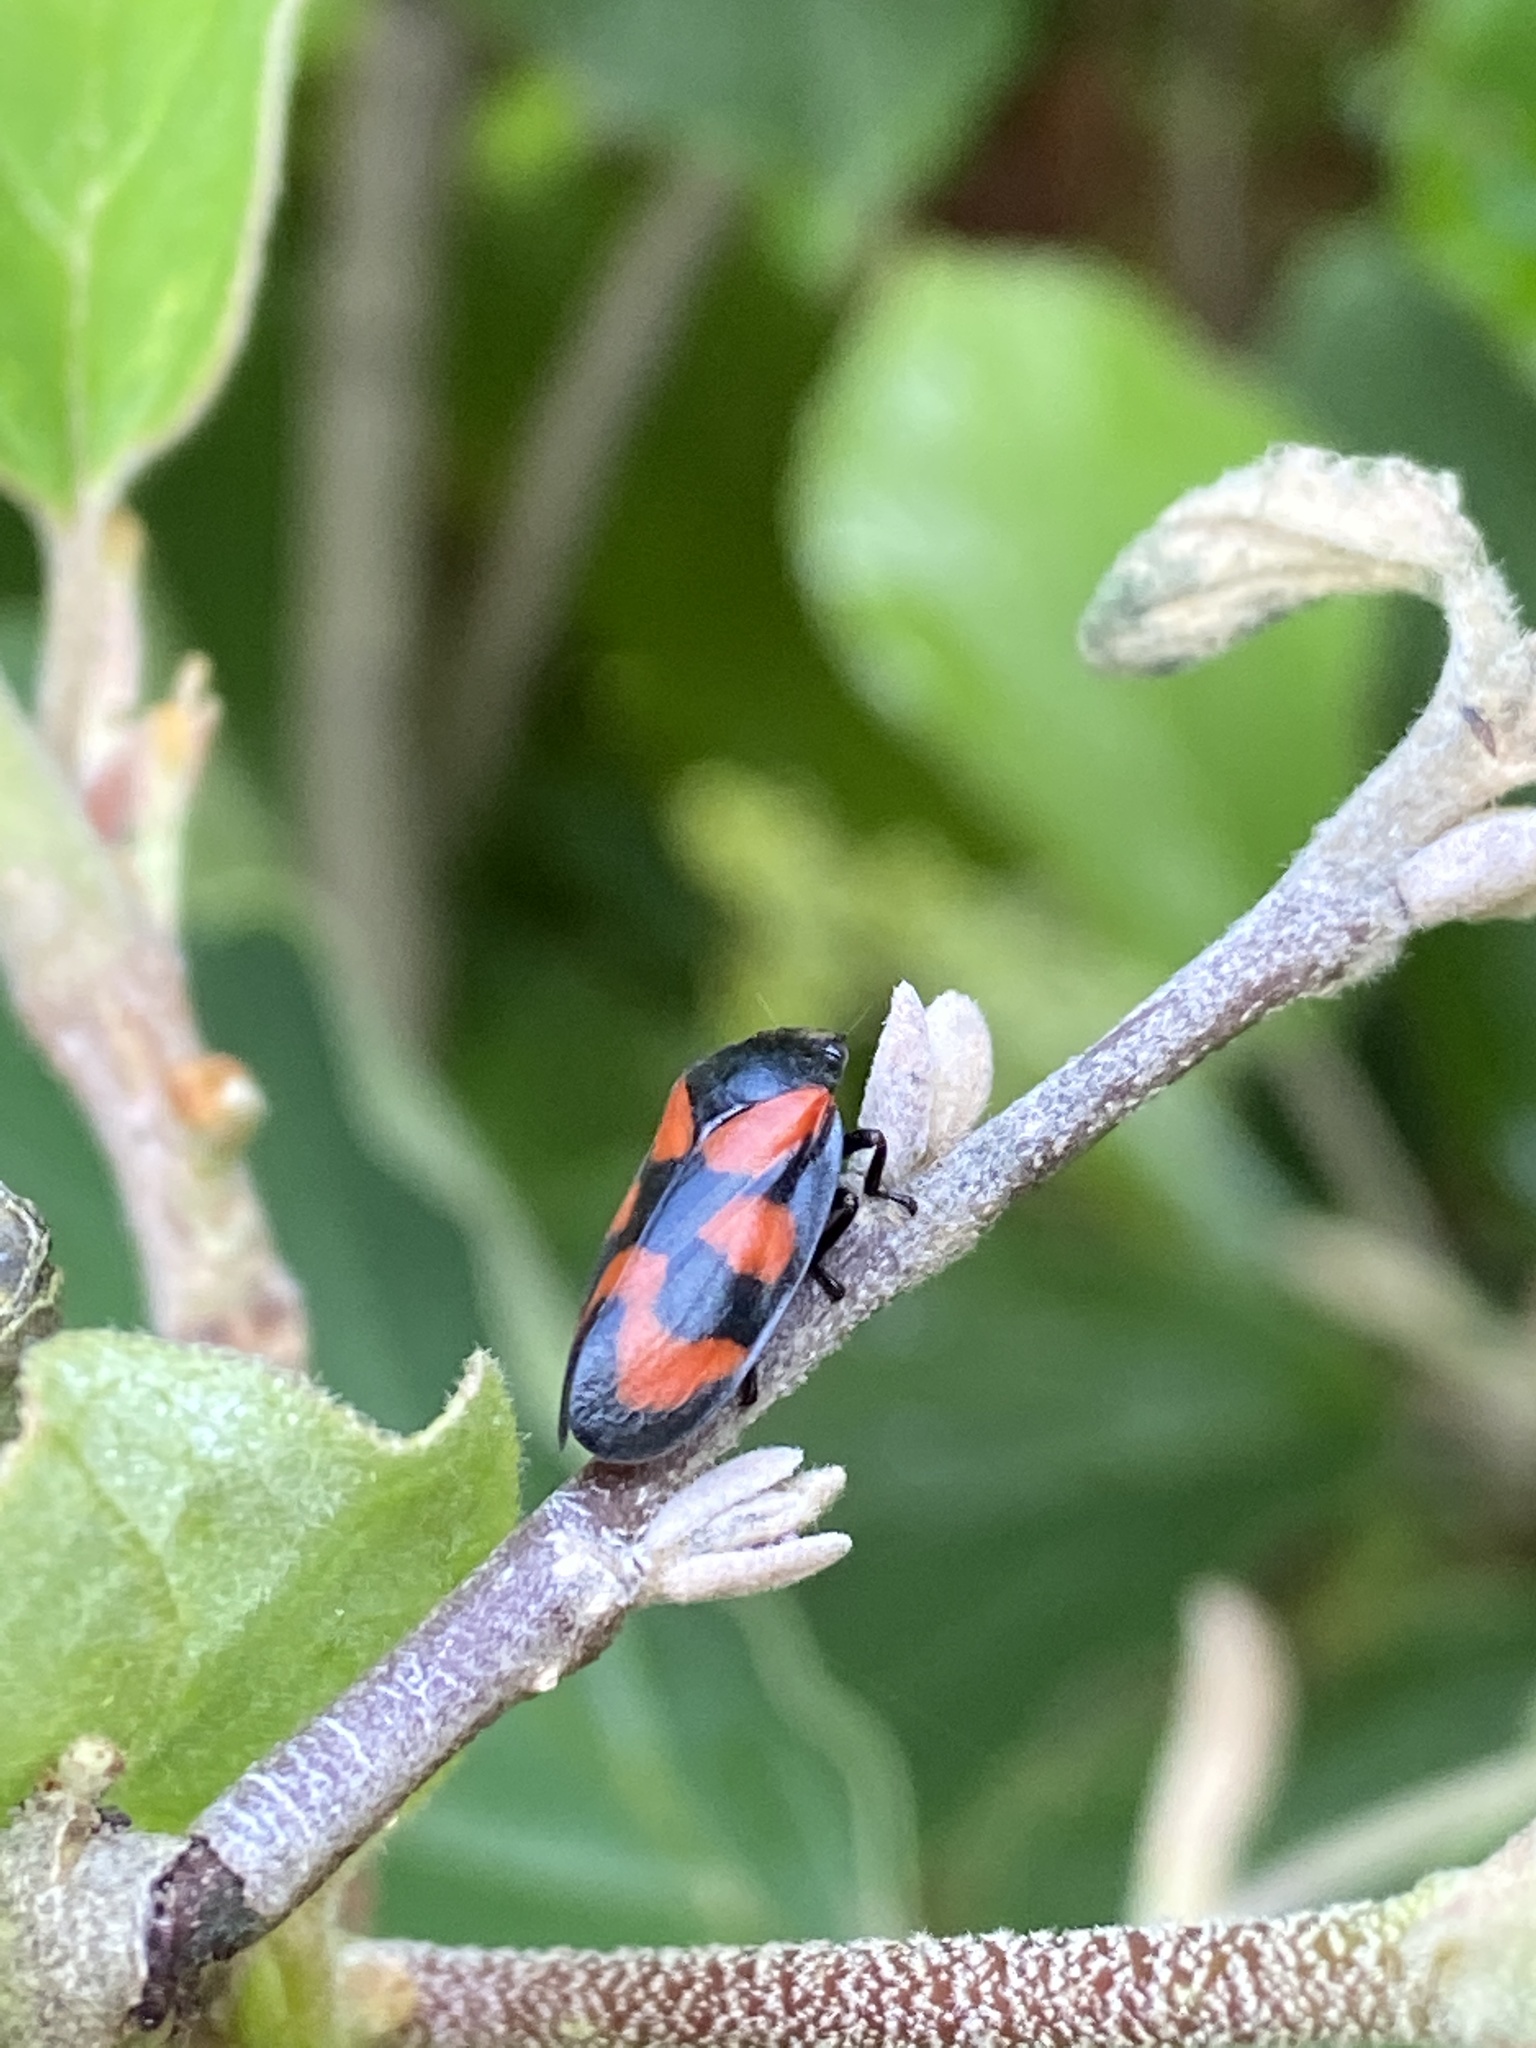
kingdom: Animalia
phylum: Arthropoda
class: Insecta
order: Hemiptera
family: Cercopidae
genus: Cercopis
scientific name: Cercopis vulnerata
